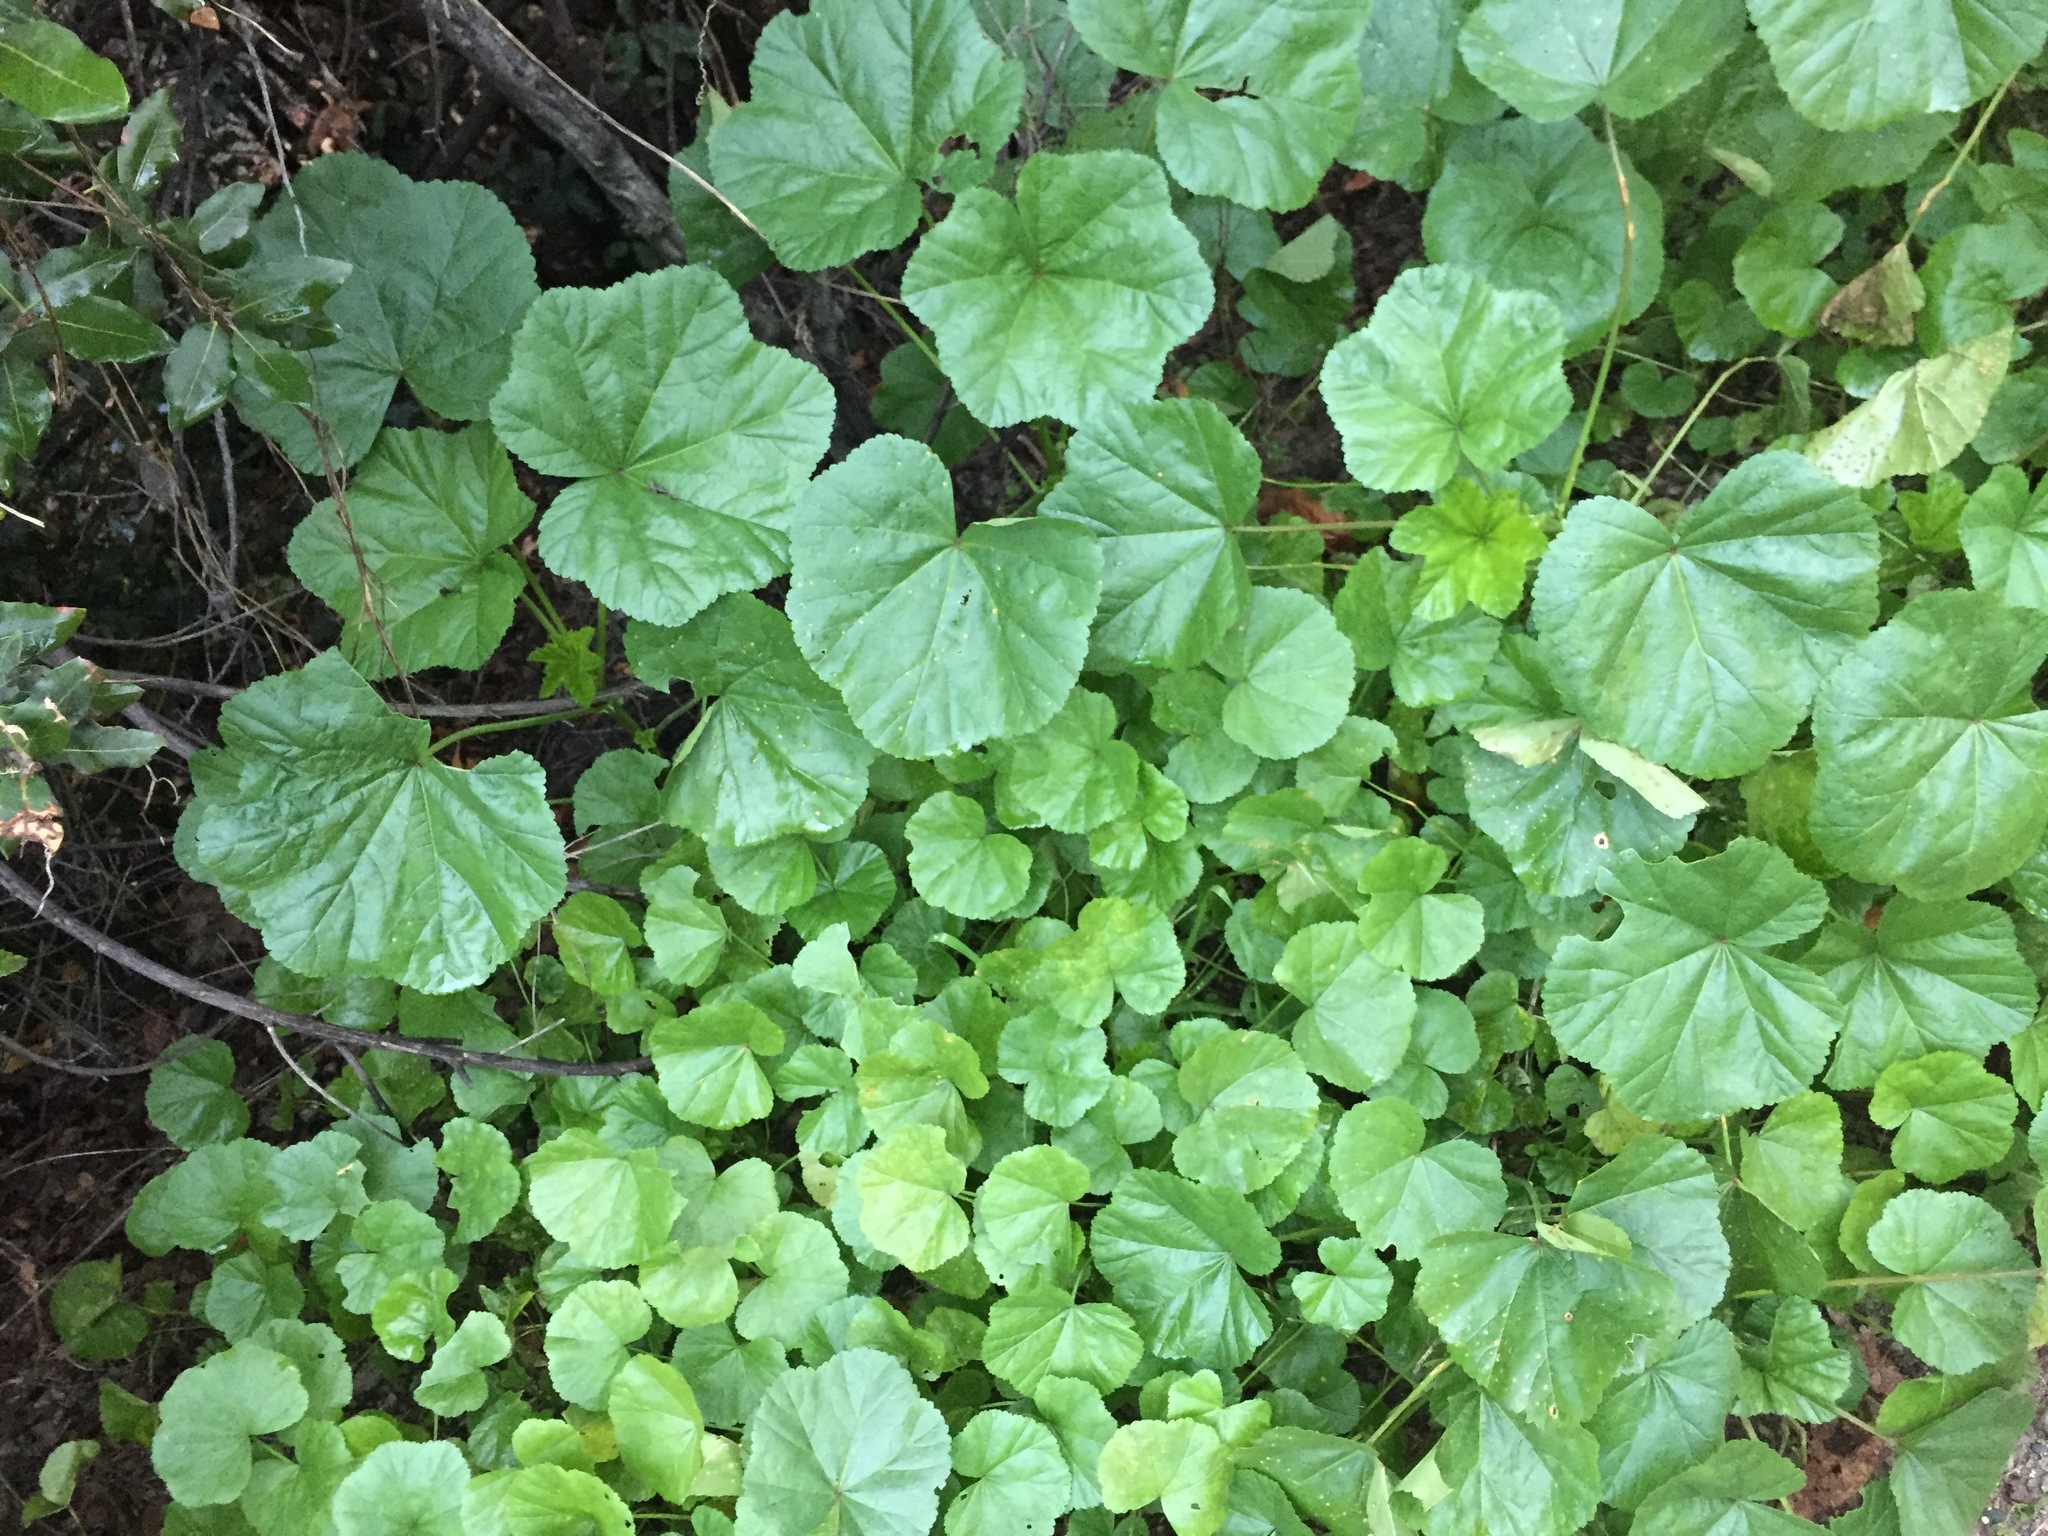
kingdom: Plantae
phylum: Tracheophyta
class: Magnoliopsida
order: Malvales
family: Malvaceae
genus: Malva
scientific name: Malva
